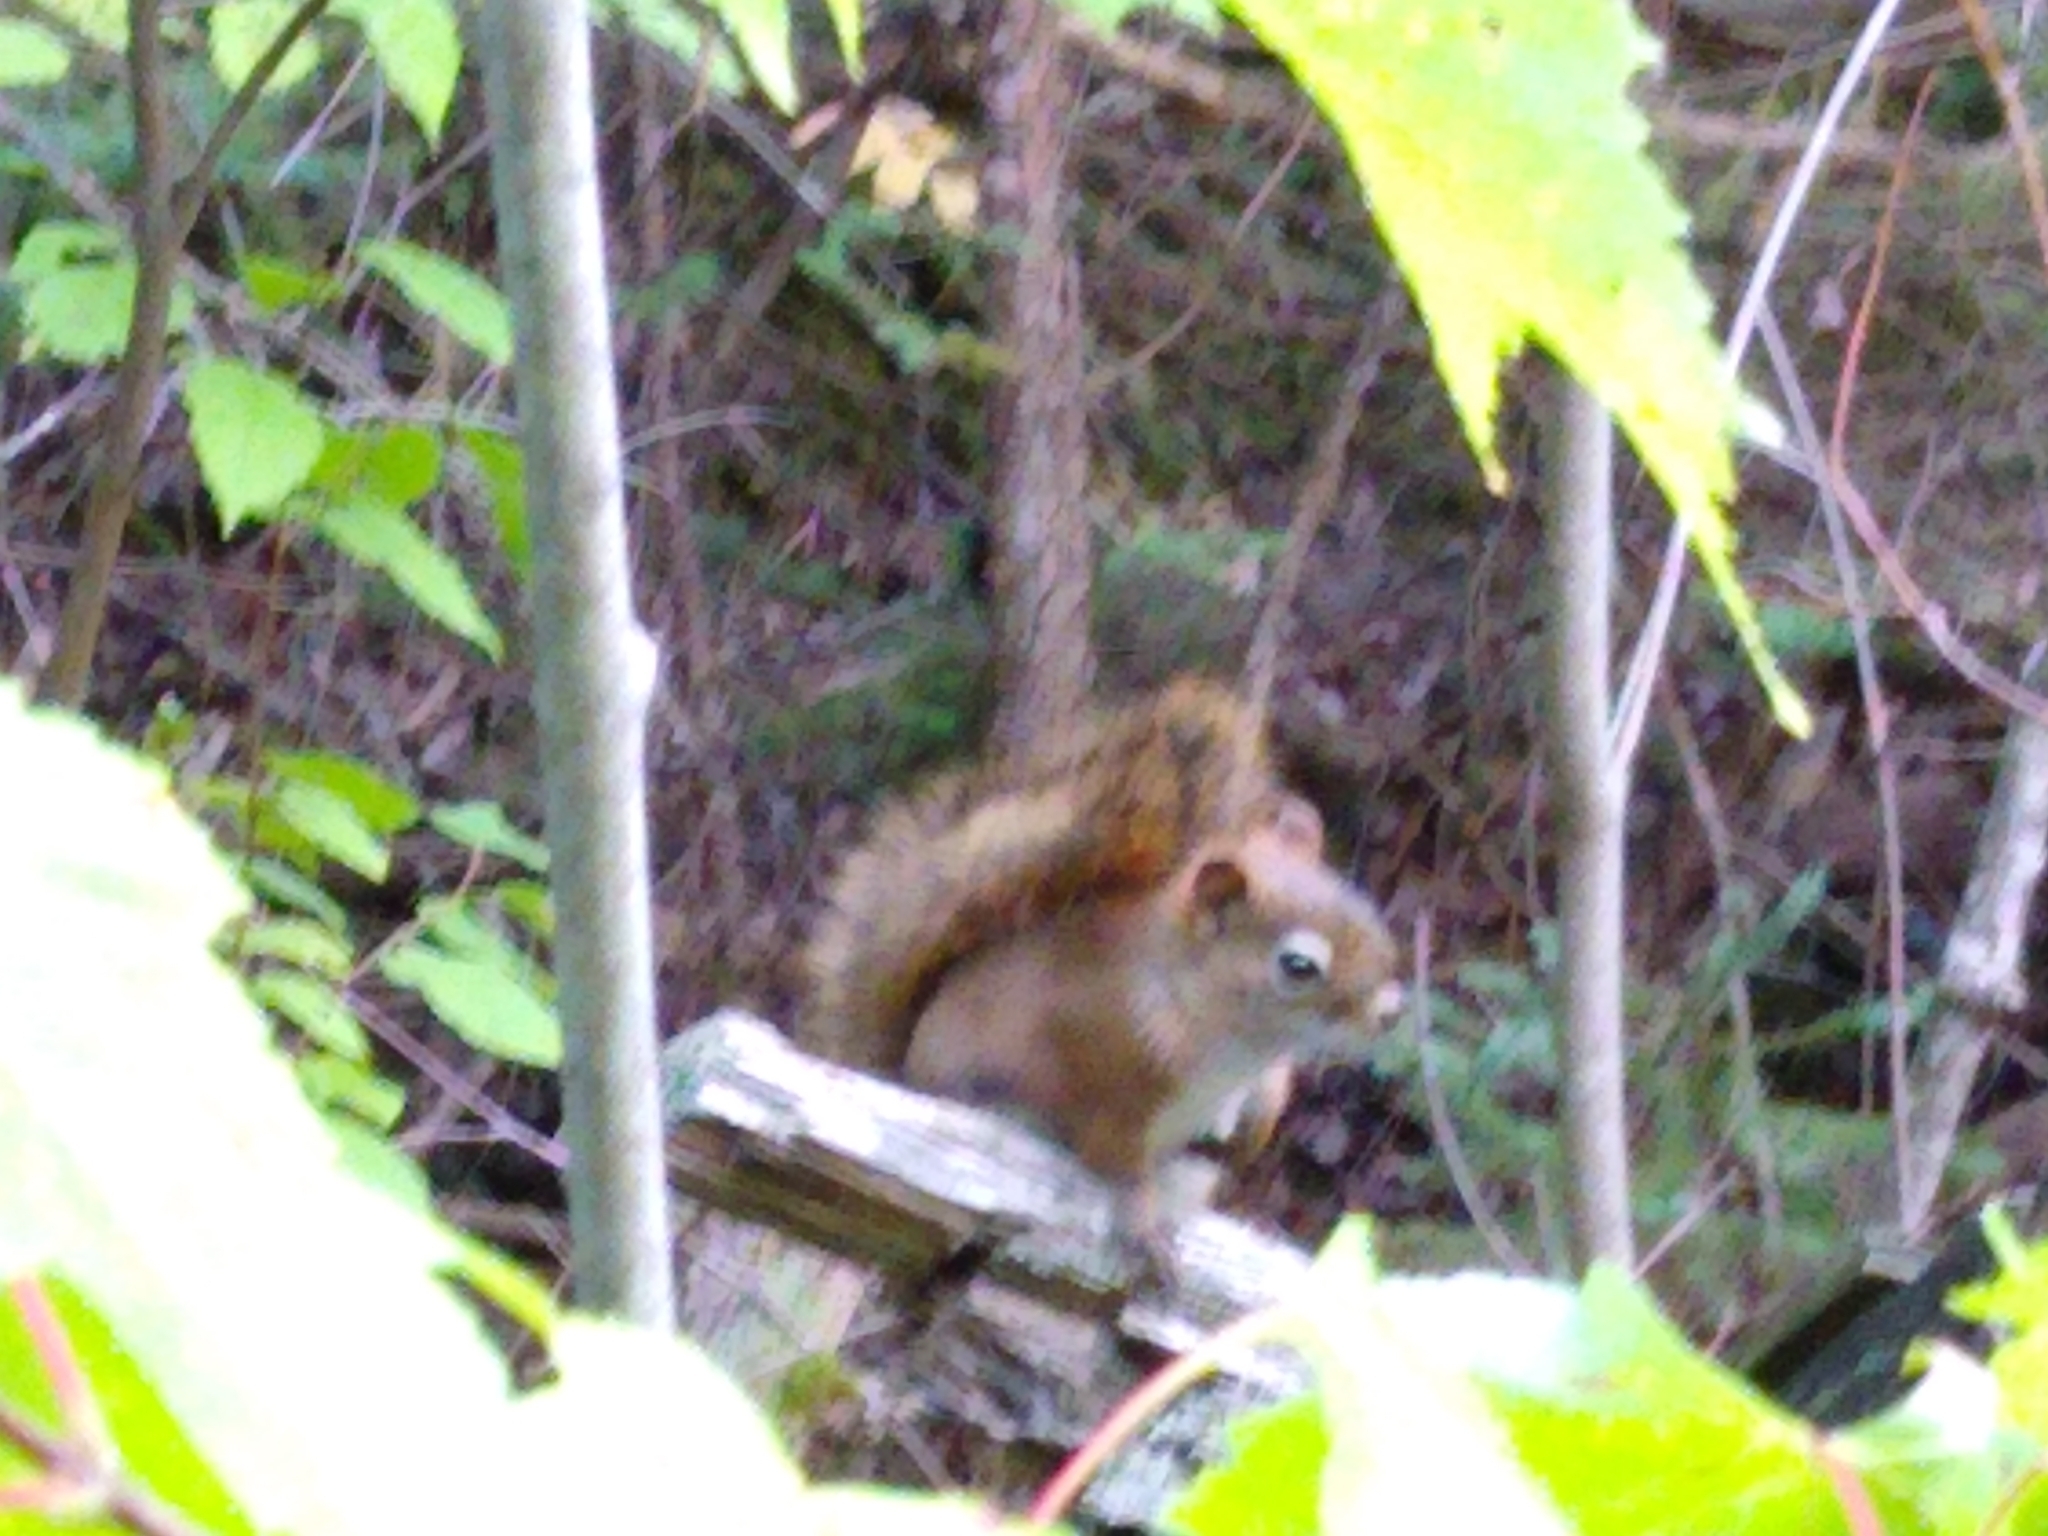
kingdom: Animalia
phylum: Chordata
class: Mammalia
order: Rodentia
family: Sciuridae
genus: Tamiasciurus
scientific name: Tamiasciurus hudsonicus
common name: Red squirrel
